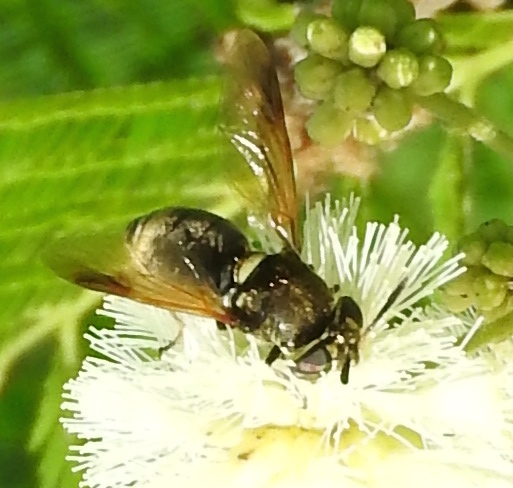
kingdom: Animalia
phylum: Arthropoda
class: Insecta
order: Diptera
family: Stratiomyidae
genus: Hoplitimyia
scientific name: Hoplitimyia
